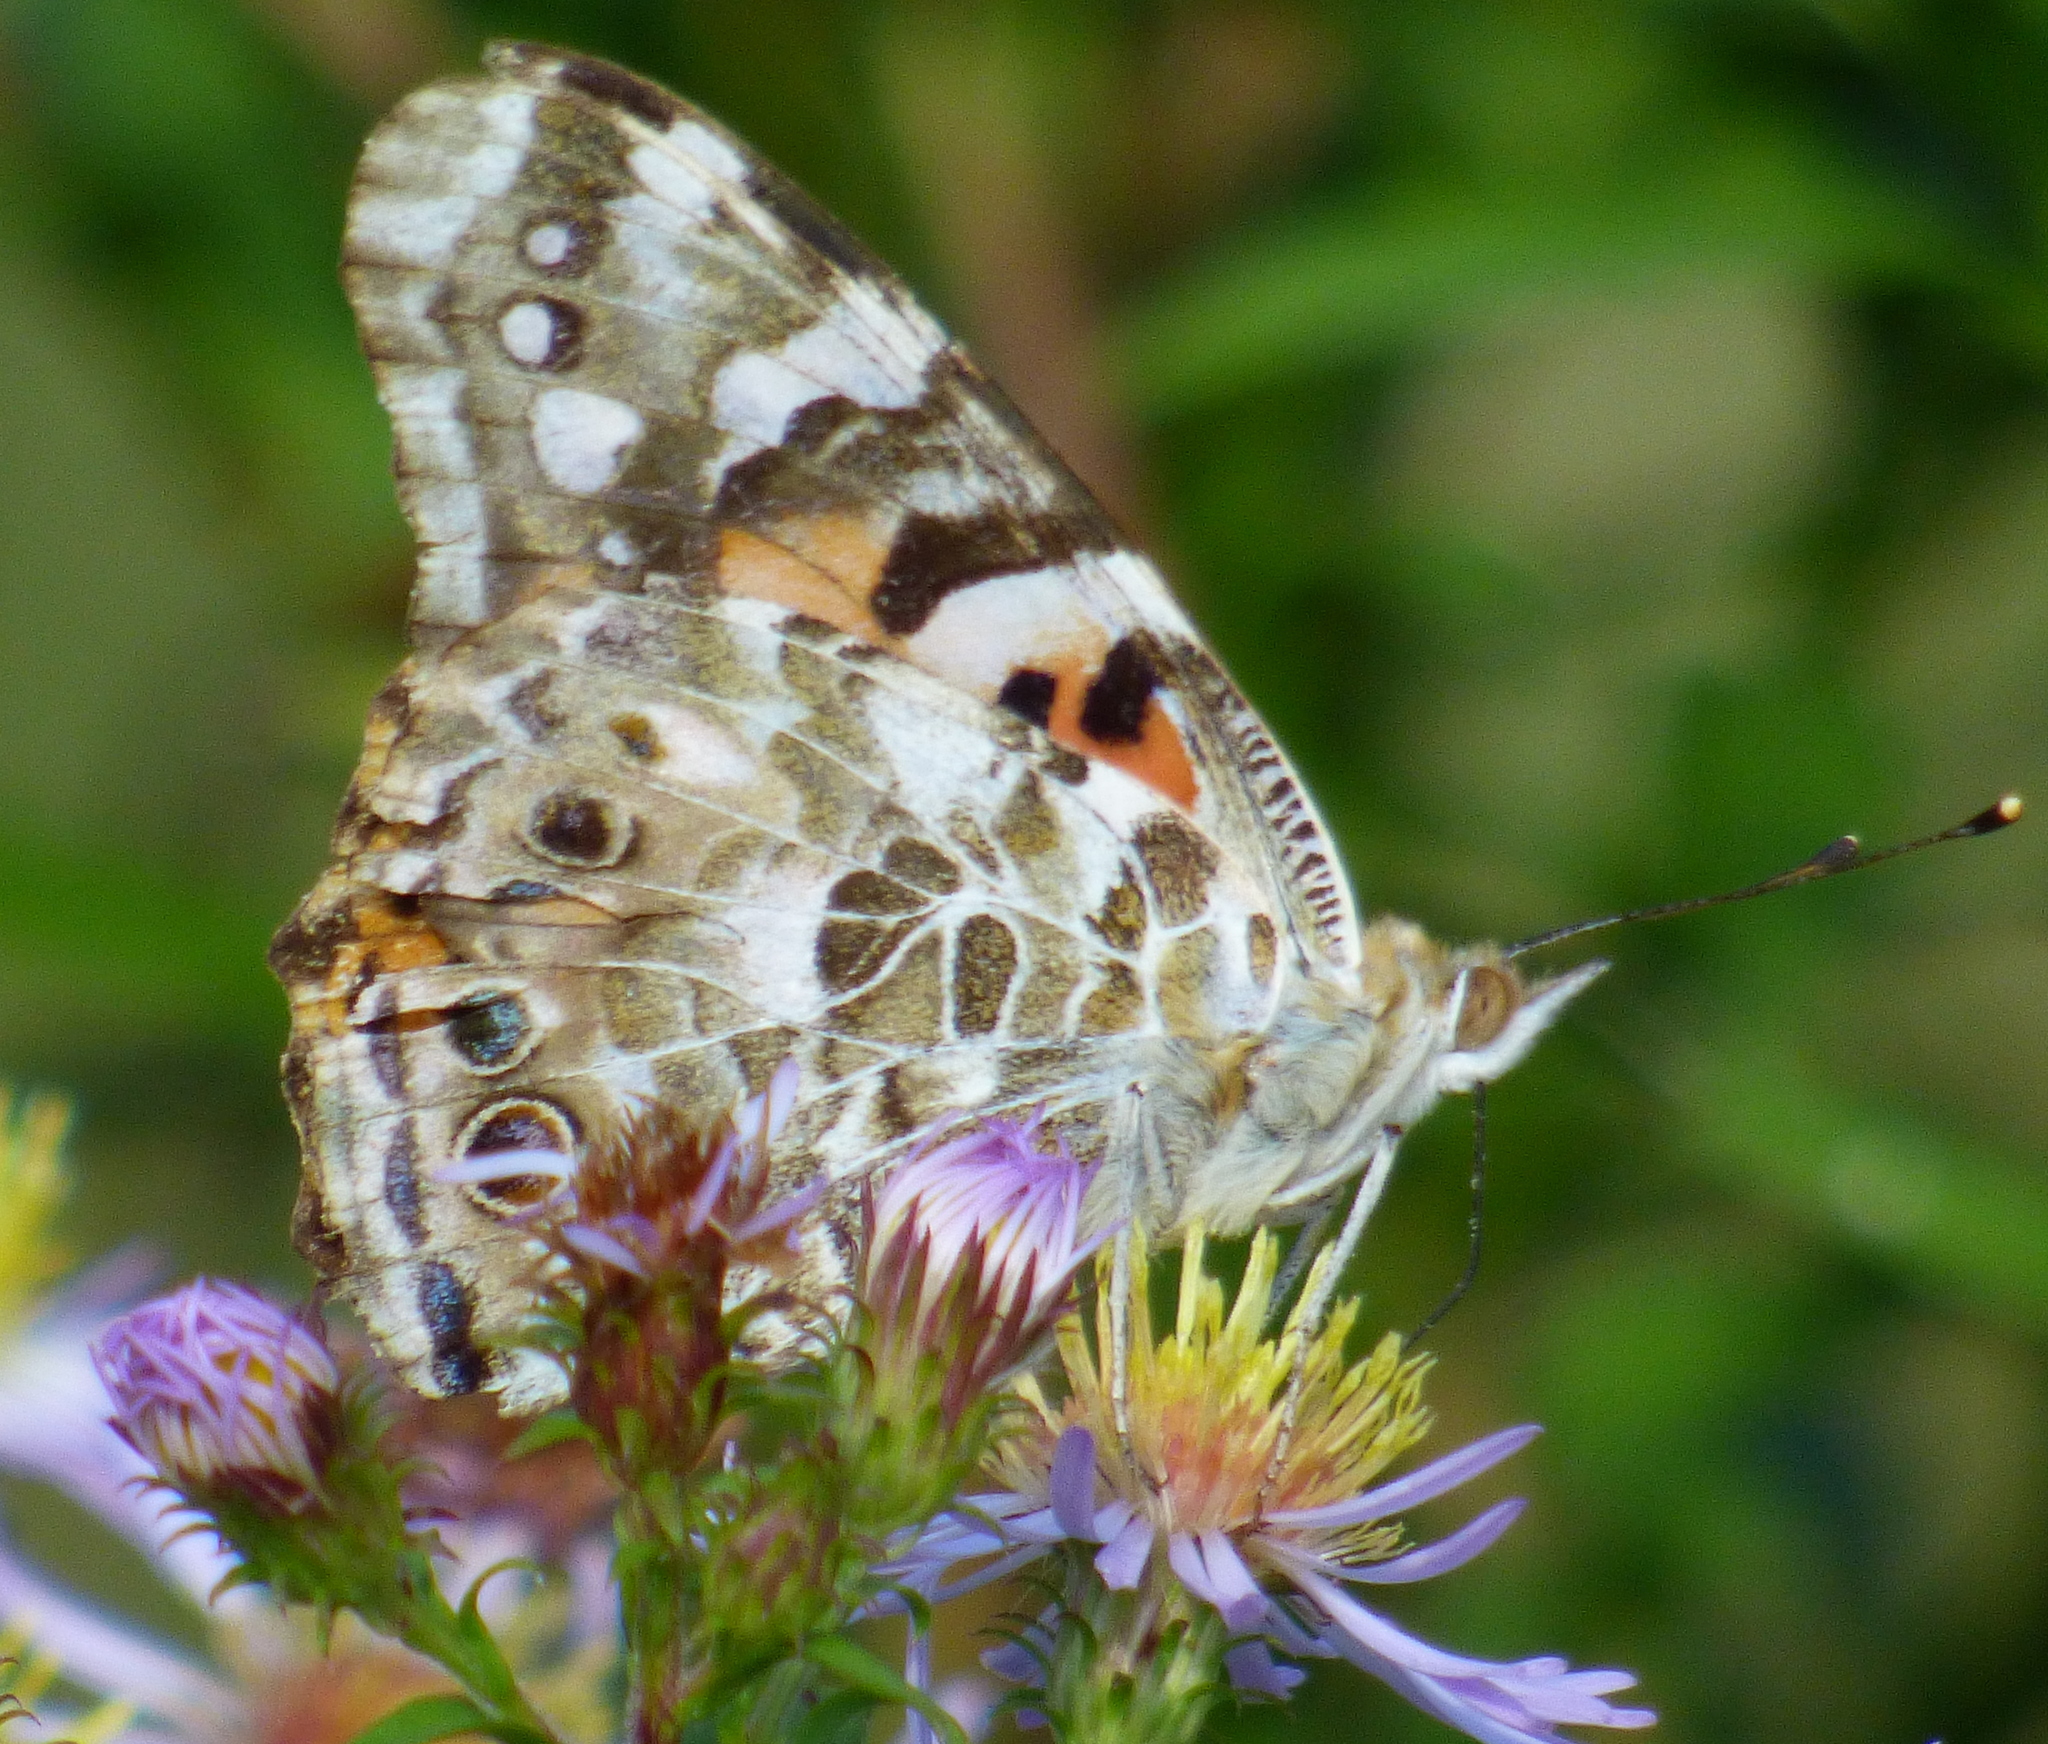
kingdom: Animalia
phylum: Arthropoda
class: Insecta
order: Lepidoptera
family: Nymphalidae
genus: Vanessa
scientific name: Vanessa cardui
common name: Painted lady
